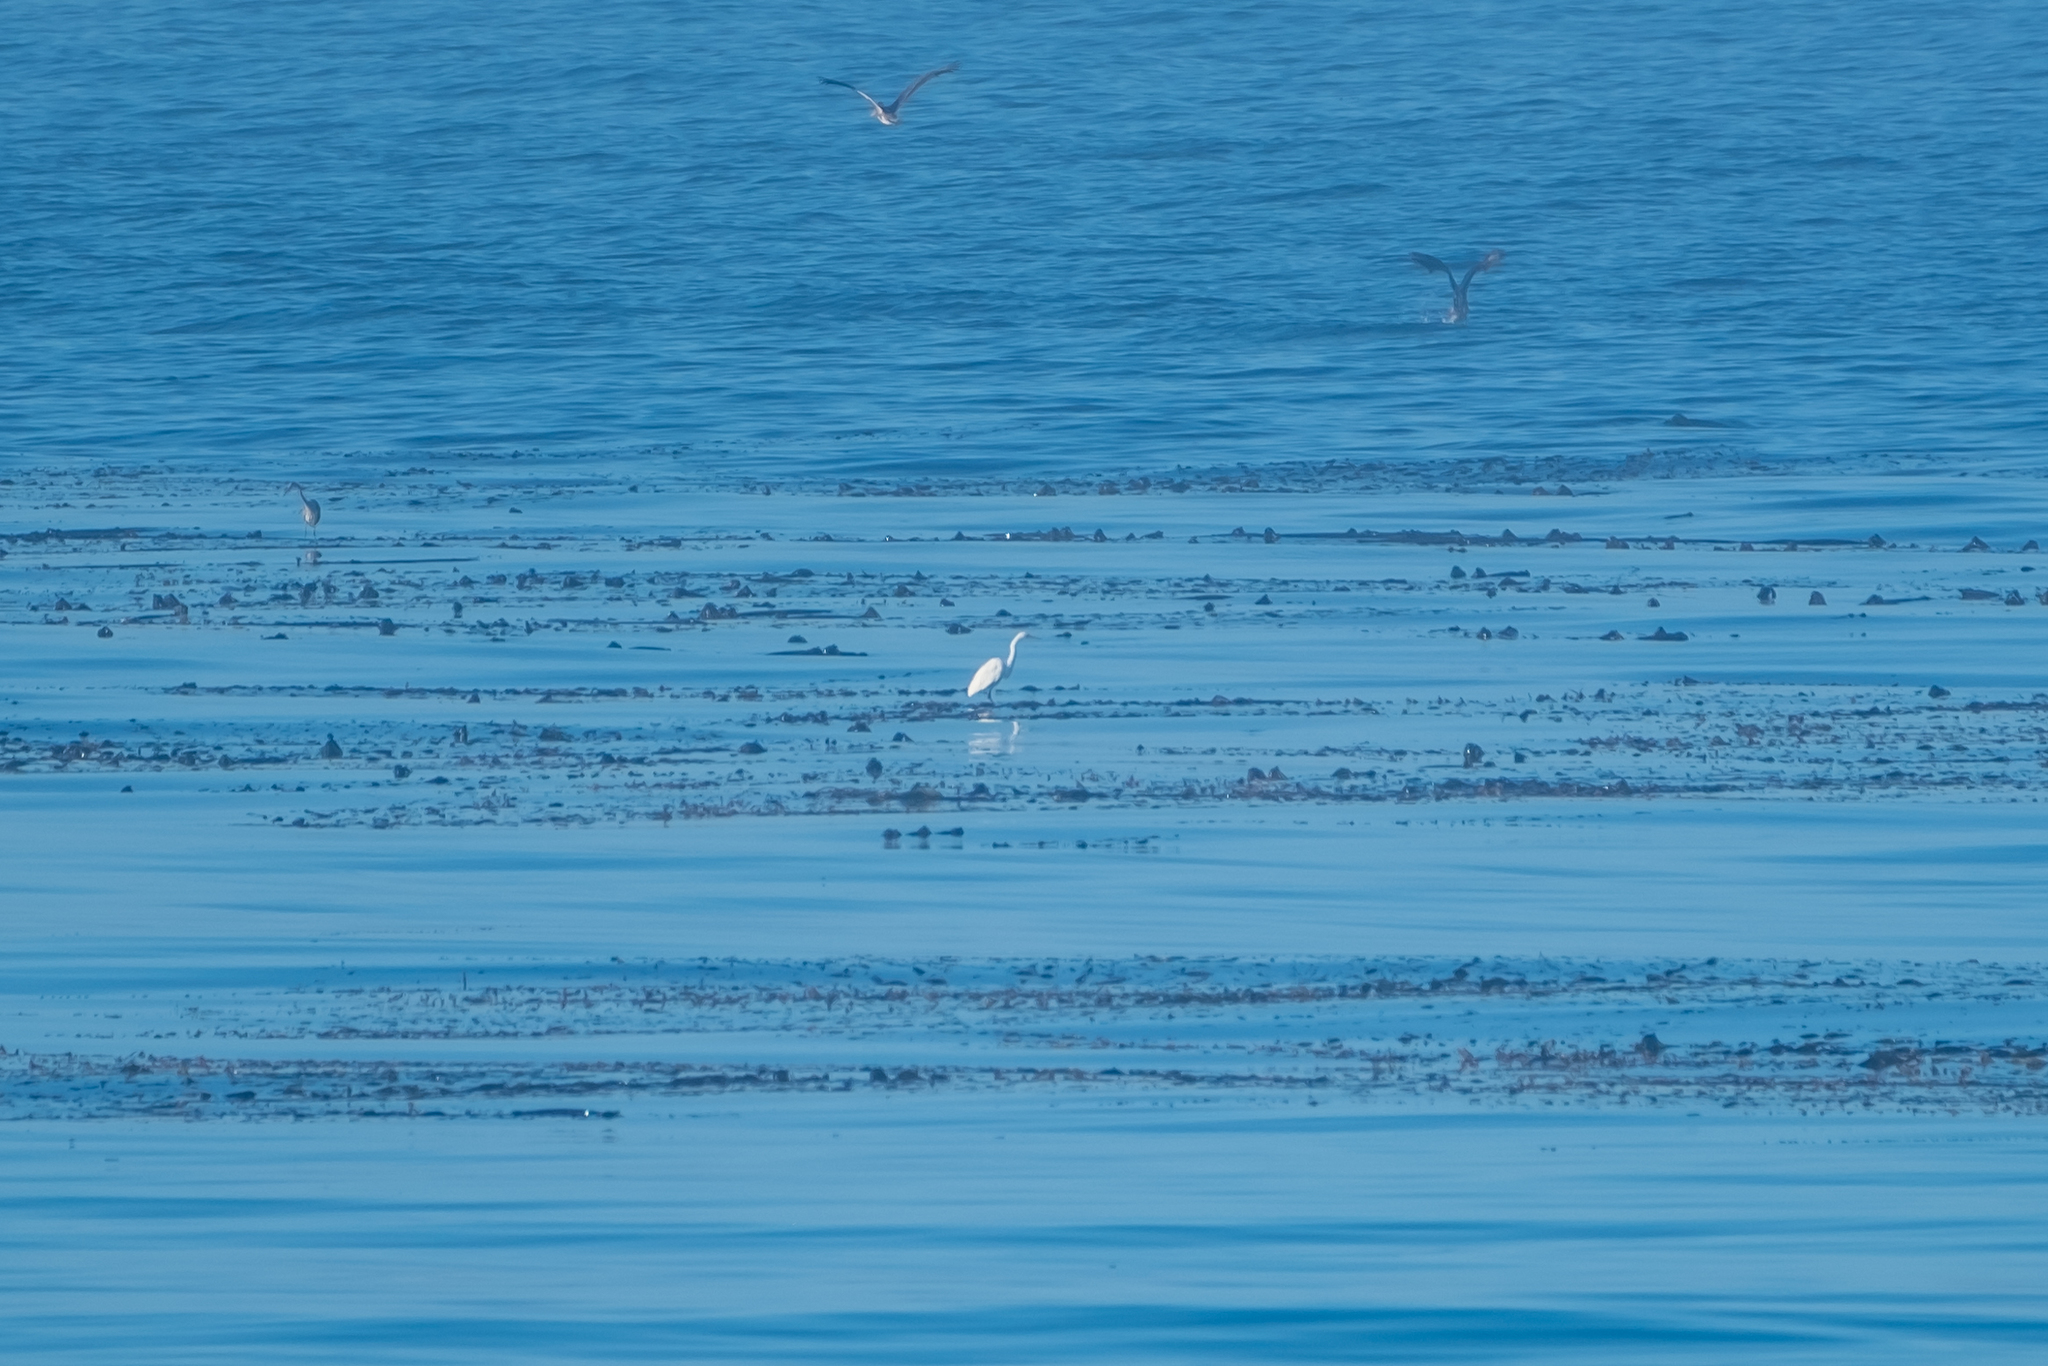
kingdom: Animalia
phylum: Chordata
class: Aves
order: Pelecaniformes
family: Ardeidae
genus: Ardea
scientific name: Ardea alba
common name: Great egret
